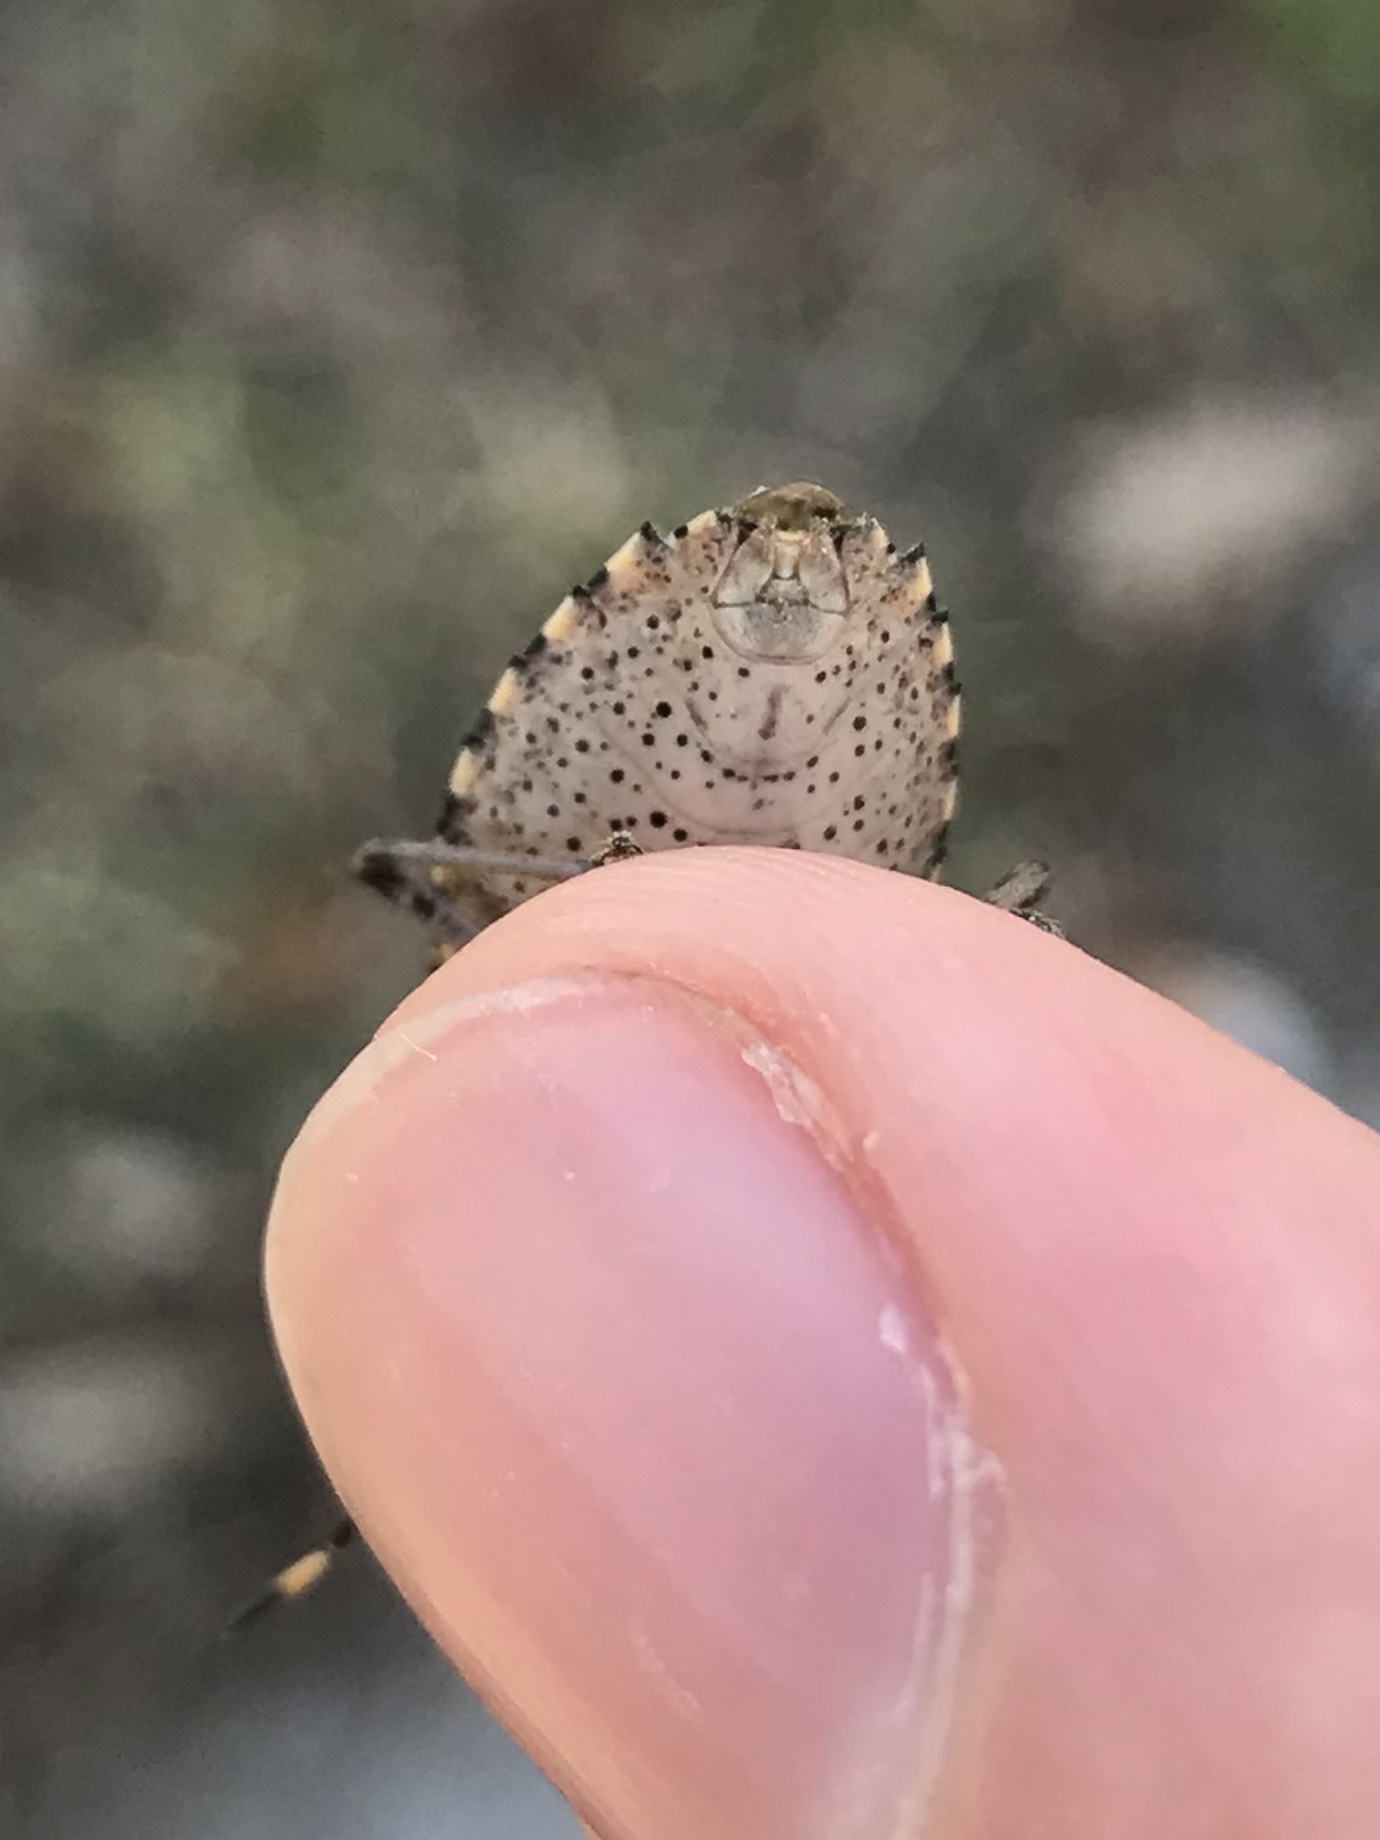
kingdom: Animalia
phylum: Arthropoda
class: Insecta
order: Hemiptera
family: Pentatomidae
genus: Rhaphigaster
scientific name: Rhaphigaster nebulosa
